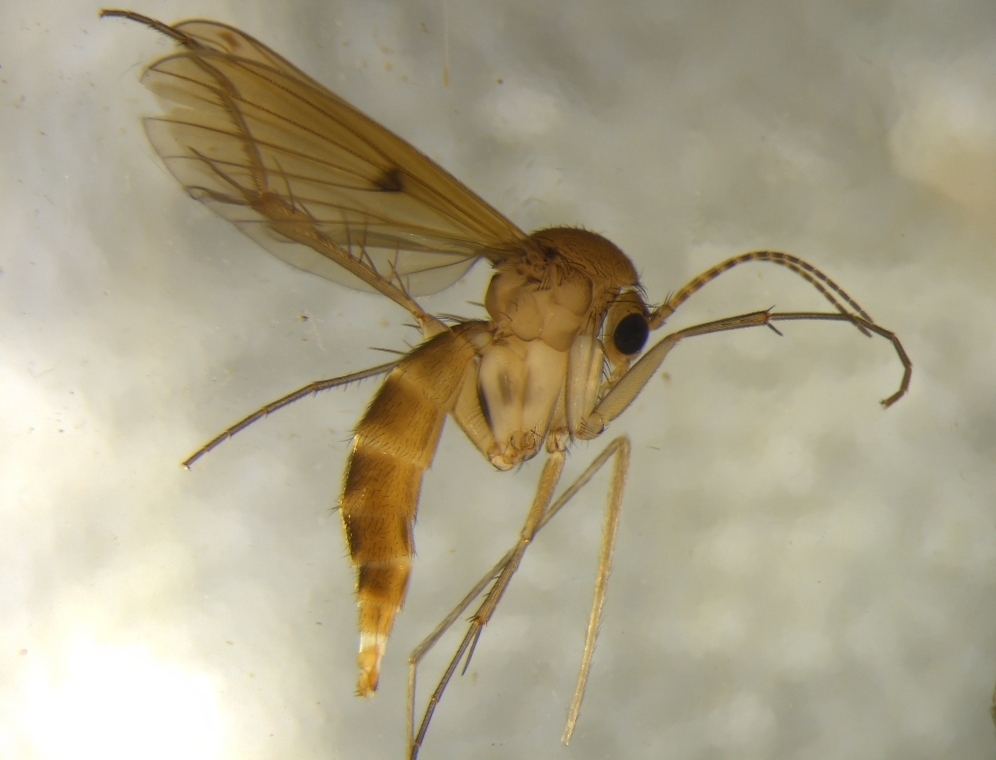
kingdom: Animalia
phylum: Arthropoda
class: Insecta
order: Diptera
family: Mycetophilidae
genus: Mycetophila
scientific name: Mycetophila fagi
